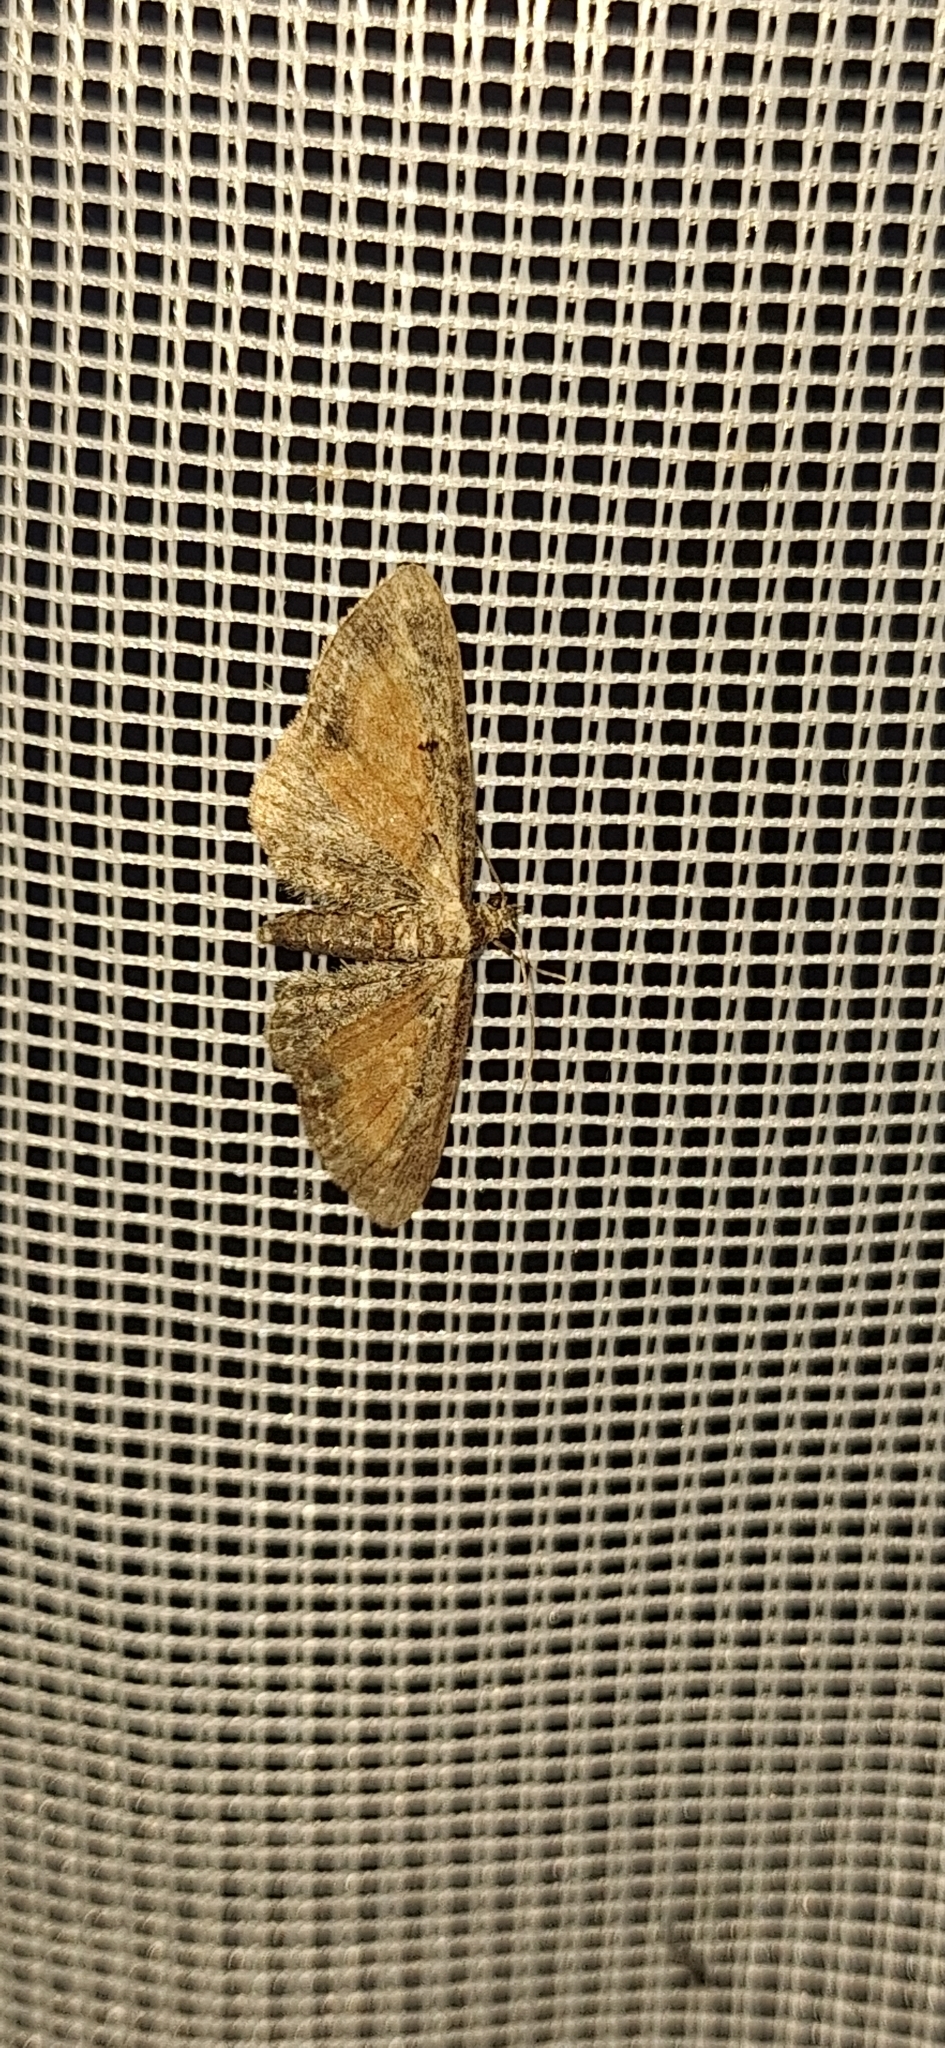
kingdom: Animalia
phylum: Arthropoda
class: Insecta
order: Lepidoptera
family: Geometridae
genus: Eupithecia
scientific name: Eupithecia icterata
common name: Tawny speckled pug
